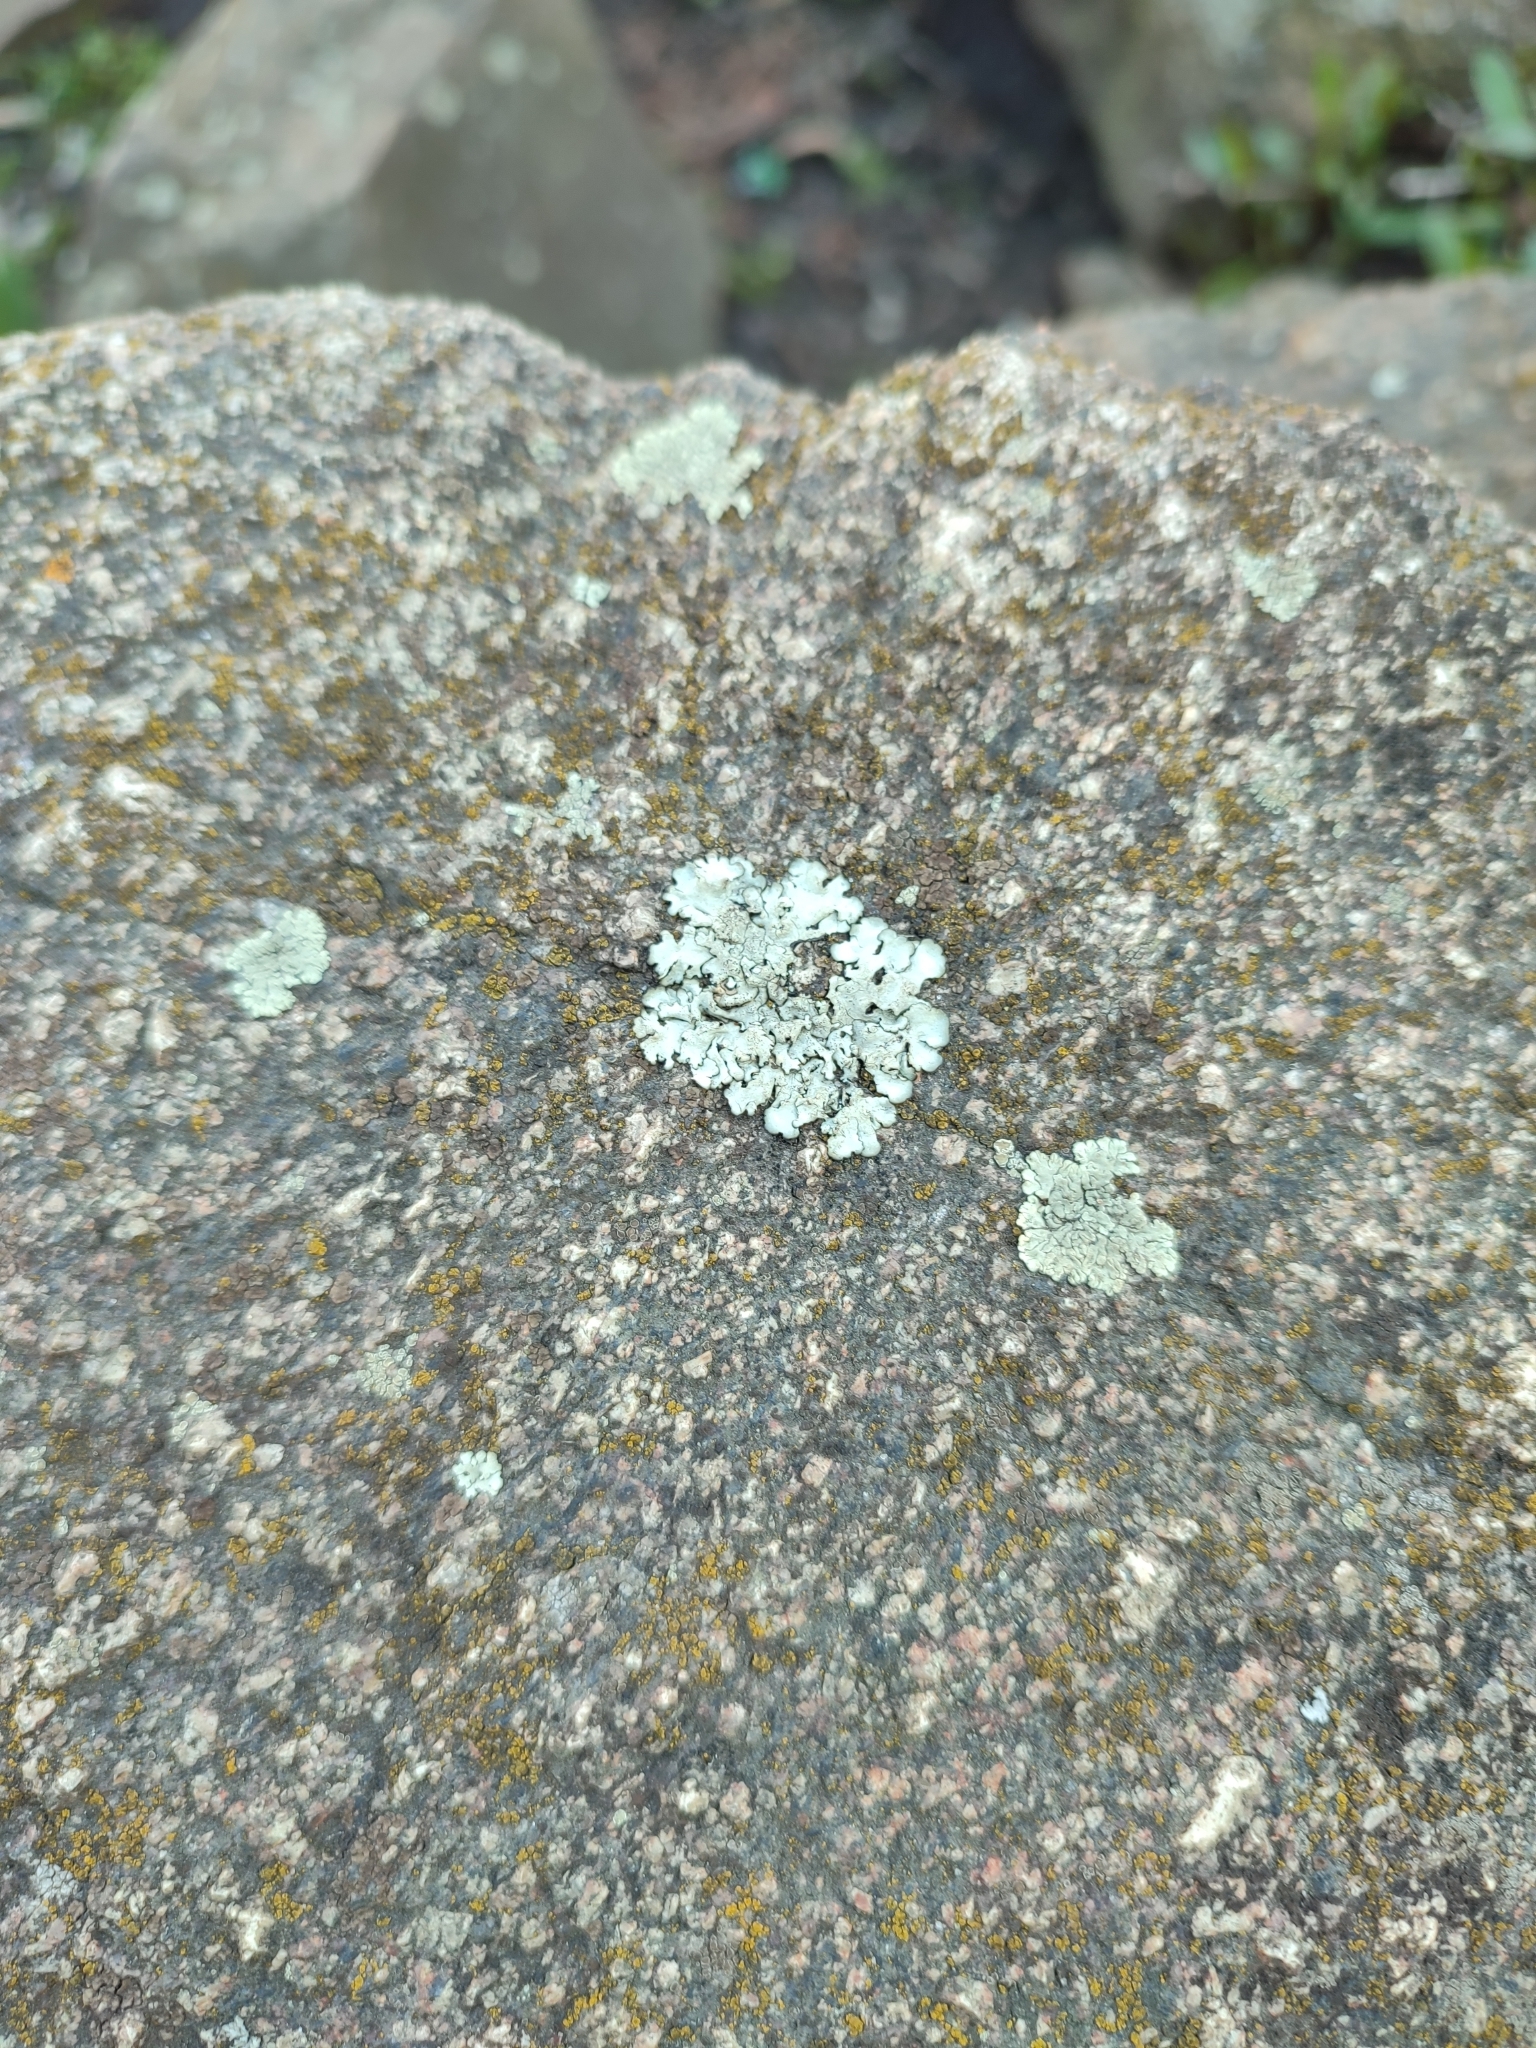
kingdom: Fungi
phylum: Ascomycota
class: Lecanoromycetes
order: Lecanorales
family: Parmeliaceae
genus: Xanthoparmelia
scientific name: Xanthoparmelia conspersa
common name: Peppered rock shield
